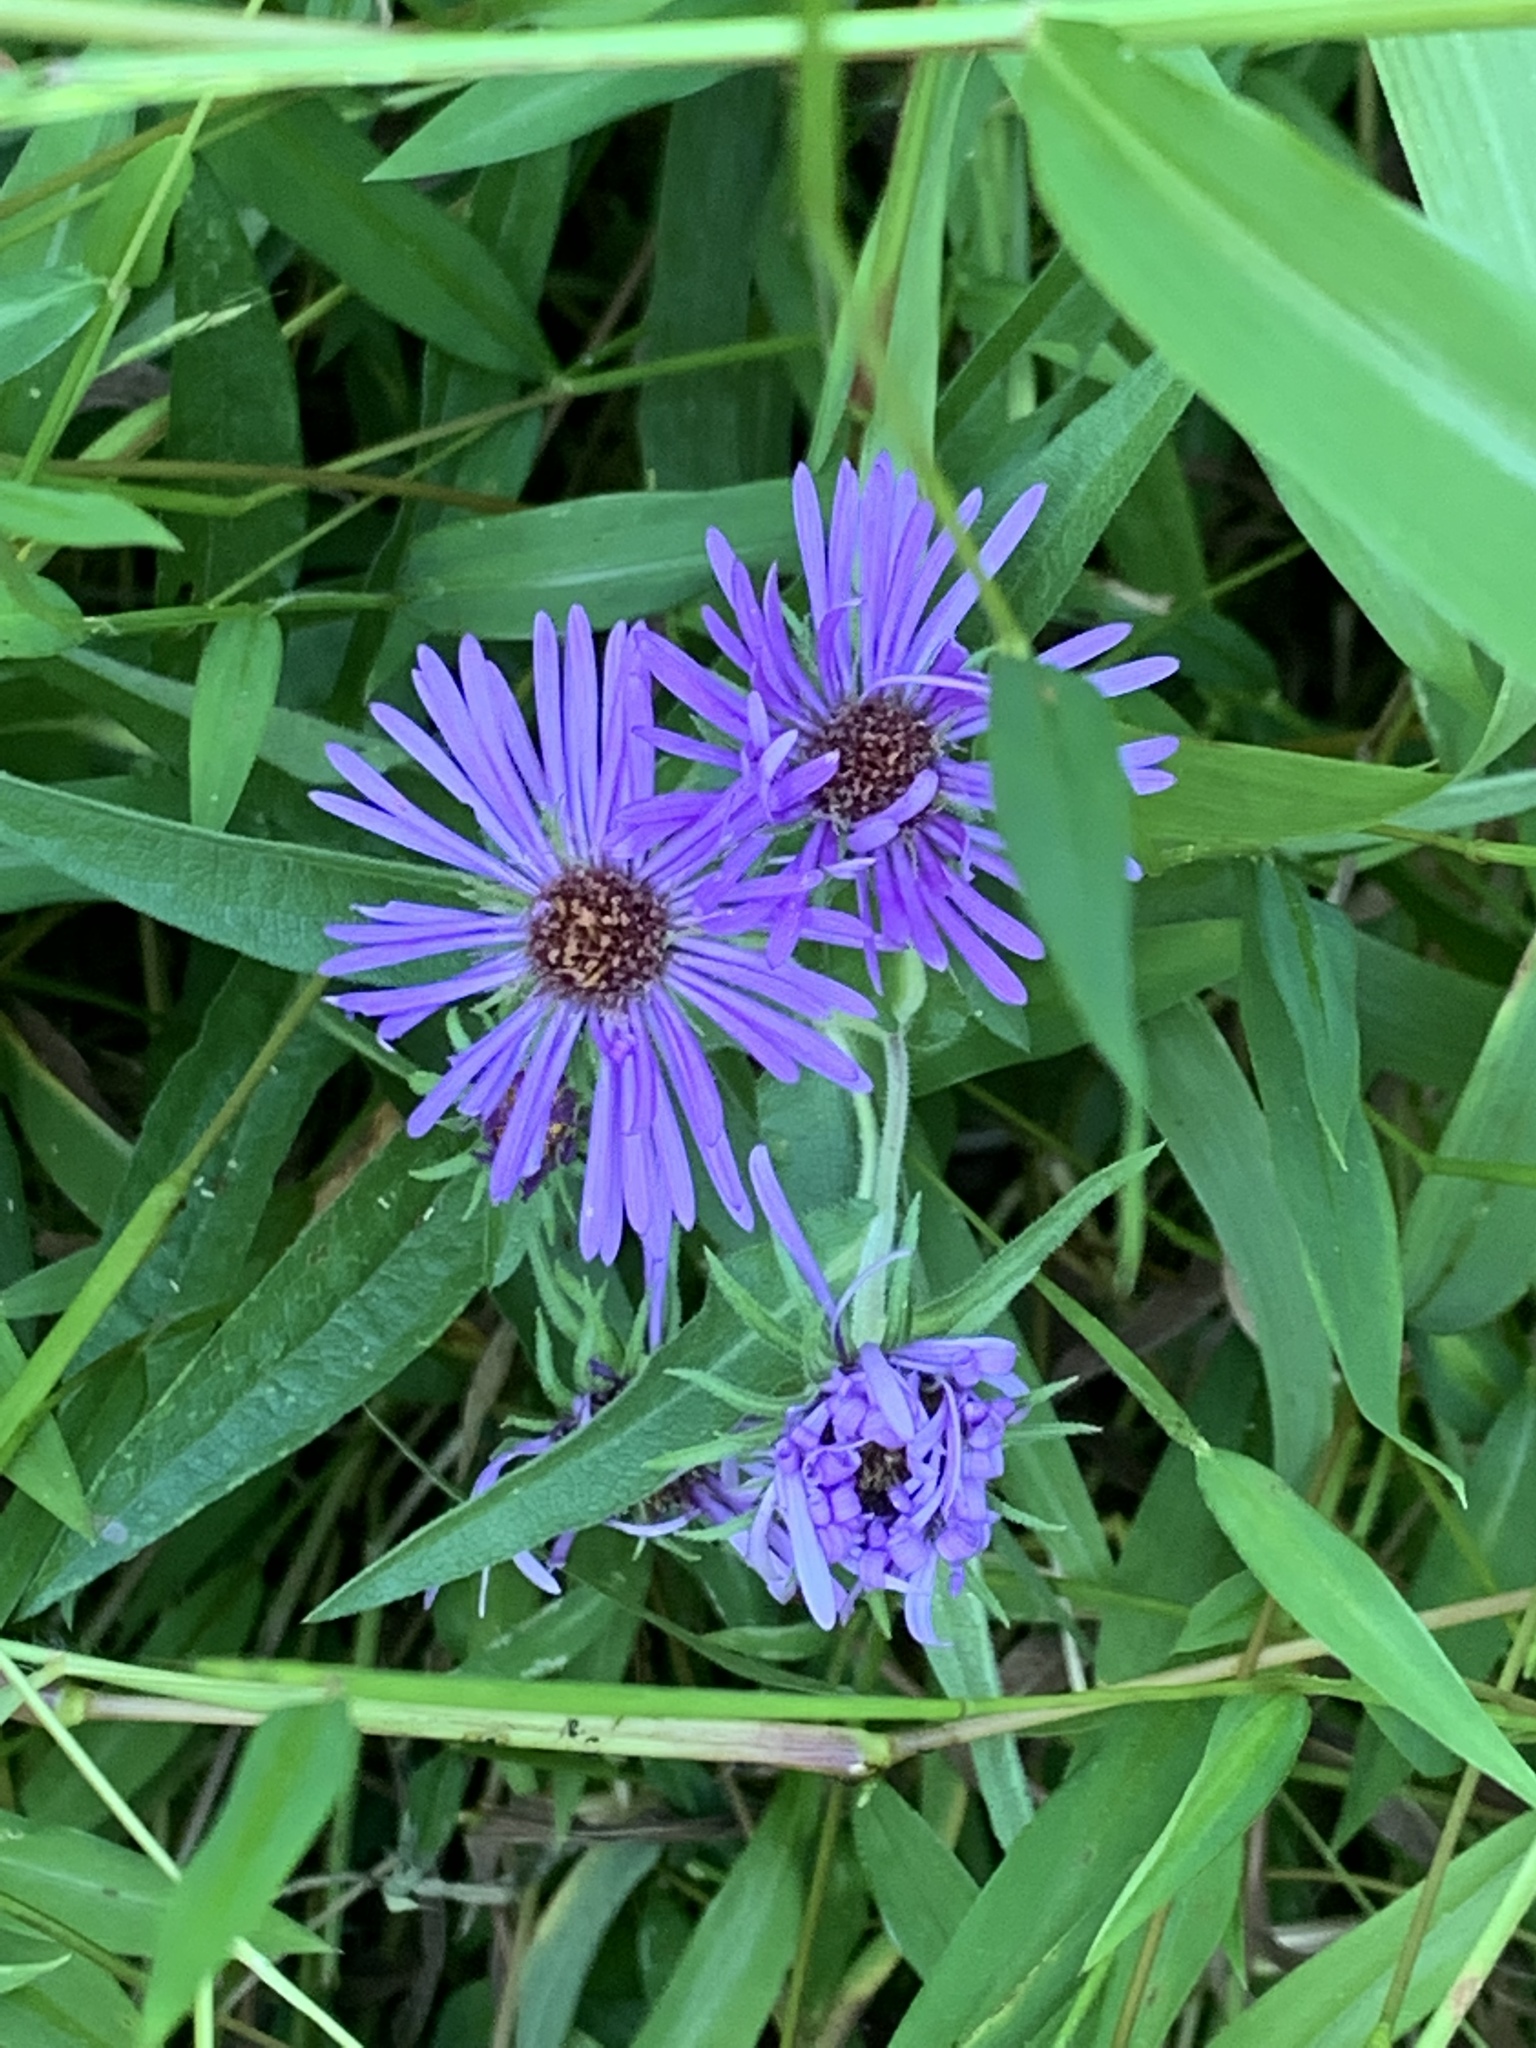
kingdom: Plantae
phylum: Tracheophyta
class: Magnoliopsida
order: Asterales
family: Asteraceae
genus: Symphyotrichum
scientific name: Symphyotrichum novae-angliae
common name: Michaelmas daisy
